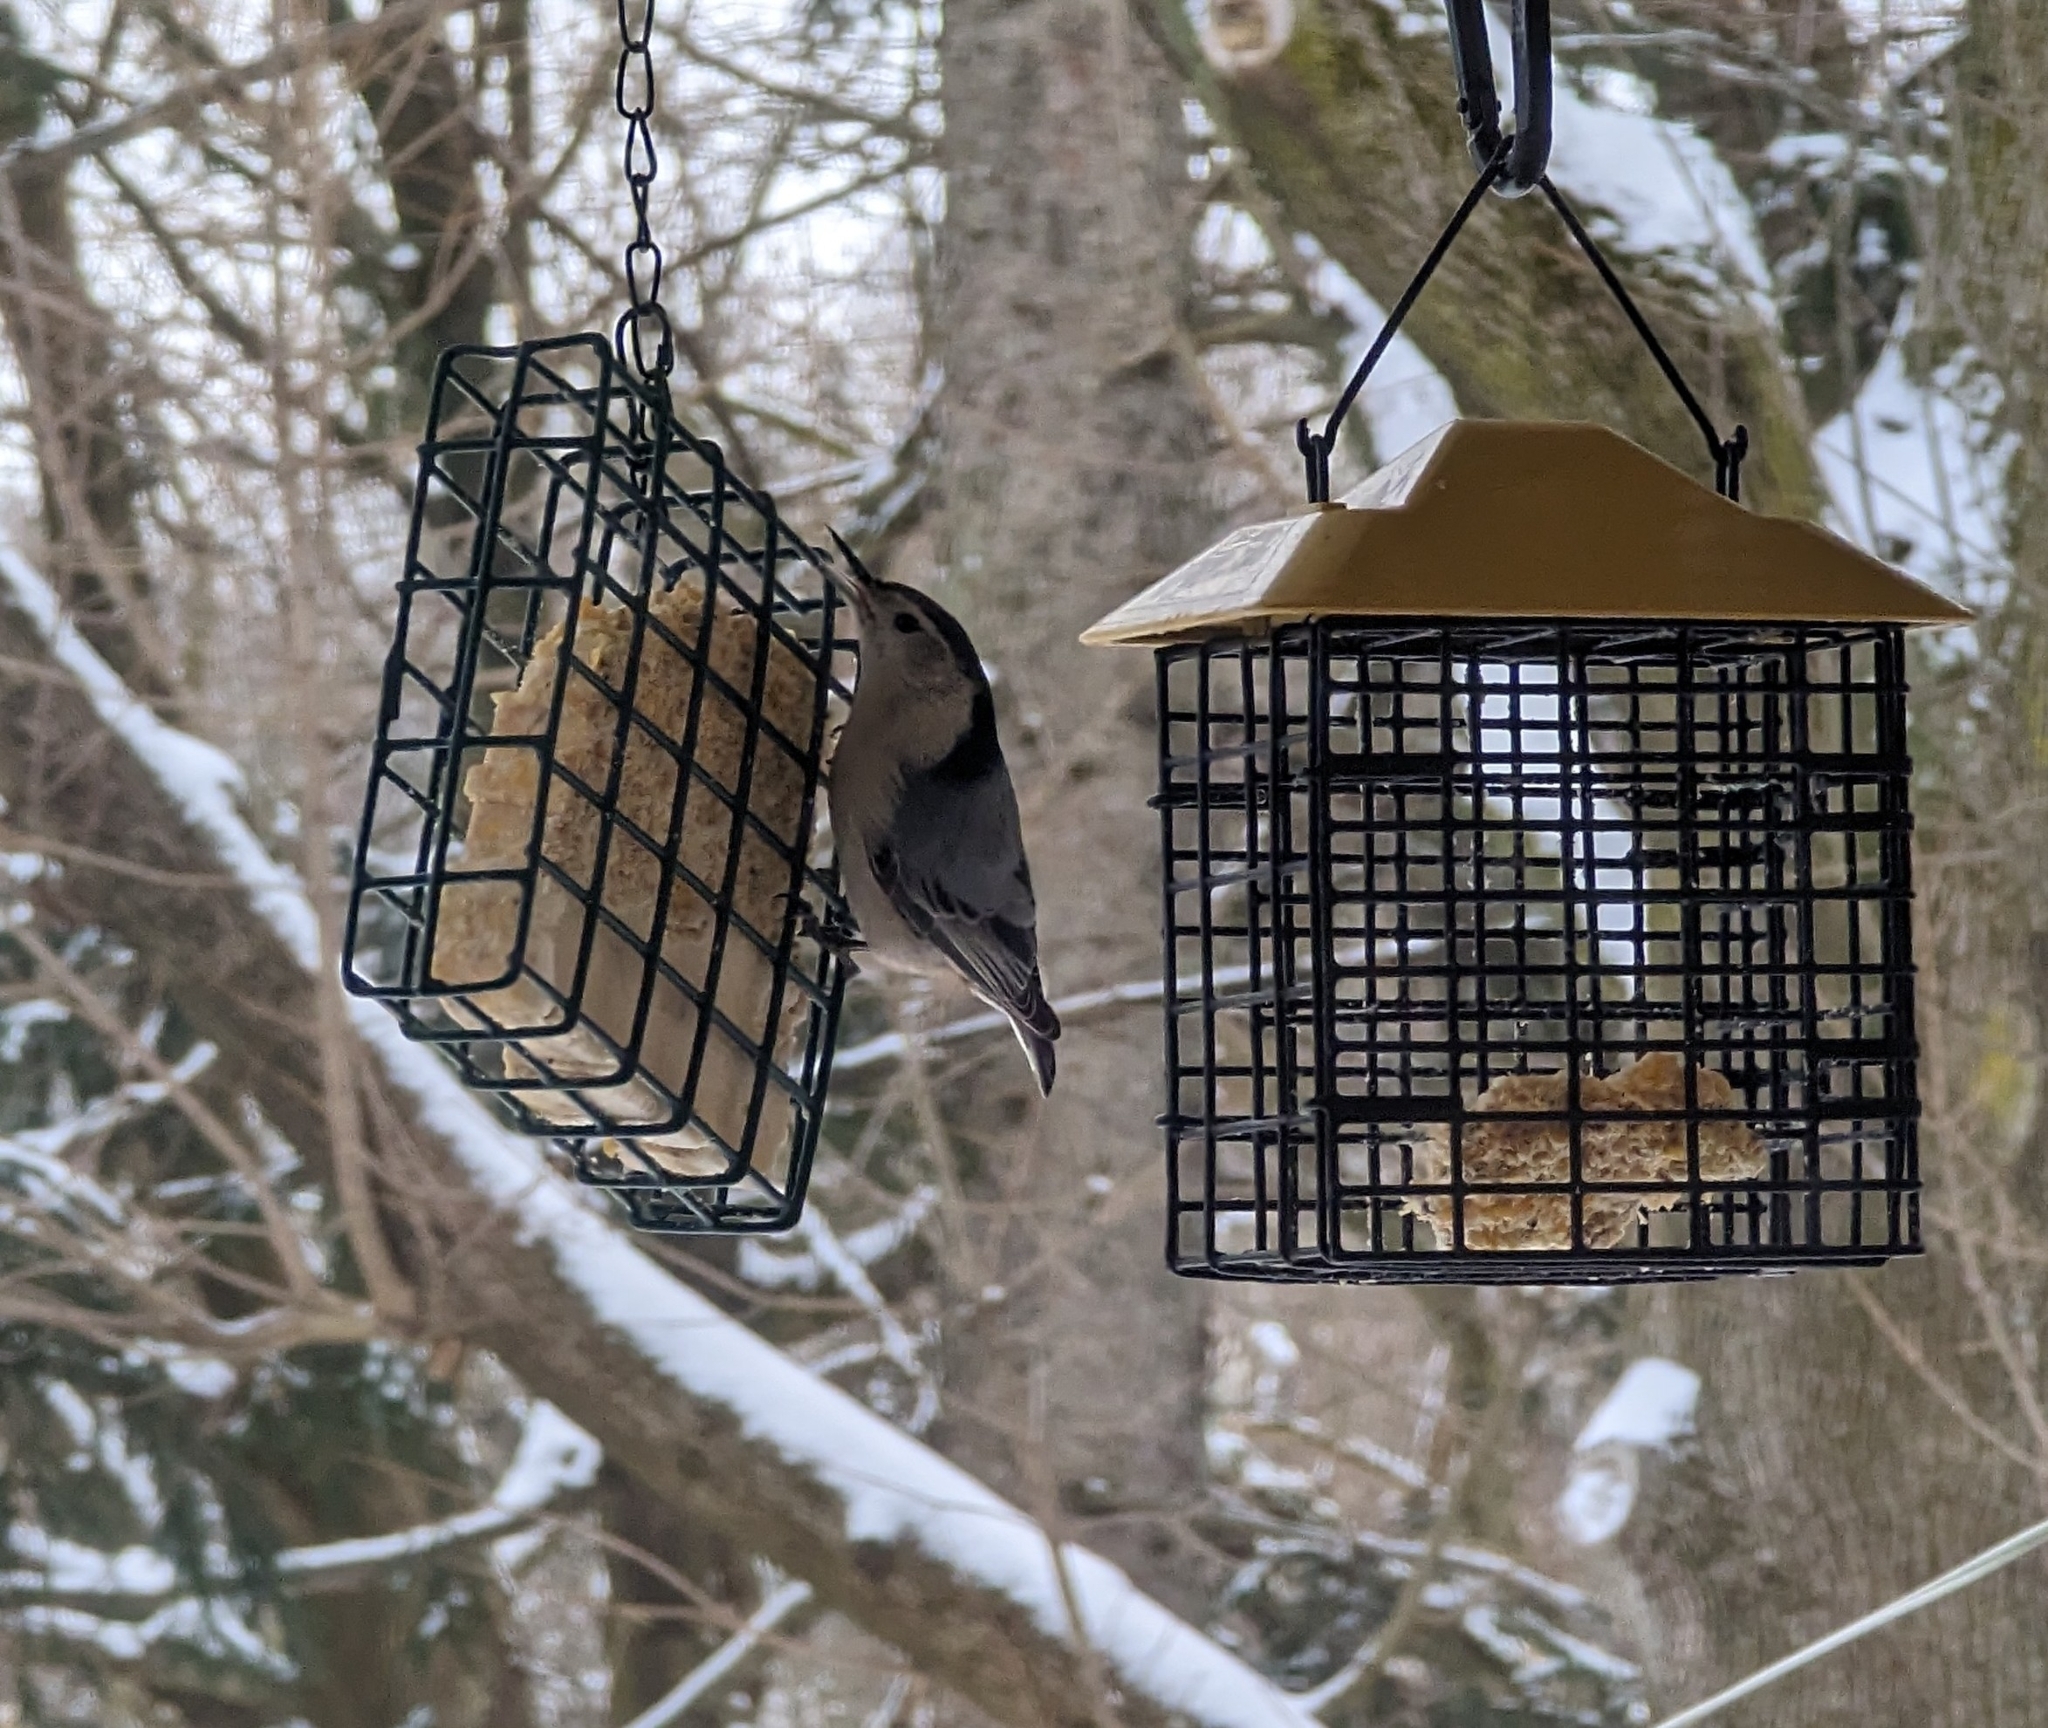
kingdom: Animalia
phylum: Chordata
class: Aves
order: Passeriformes
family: Sittidae
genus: Sitta
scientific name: Sitta carolinensis
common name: White-breasted nuthatch
